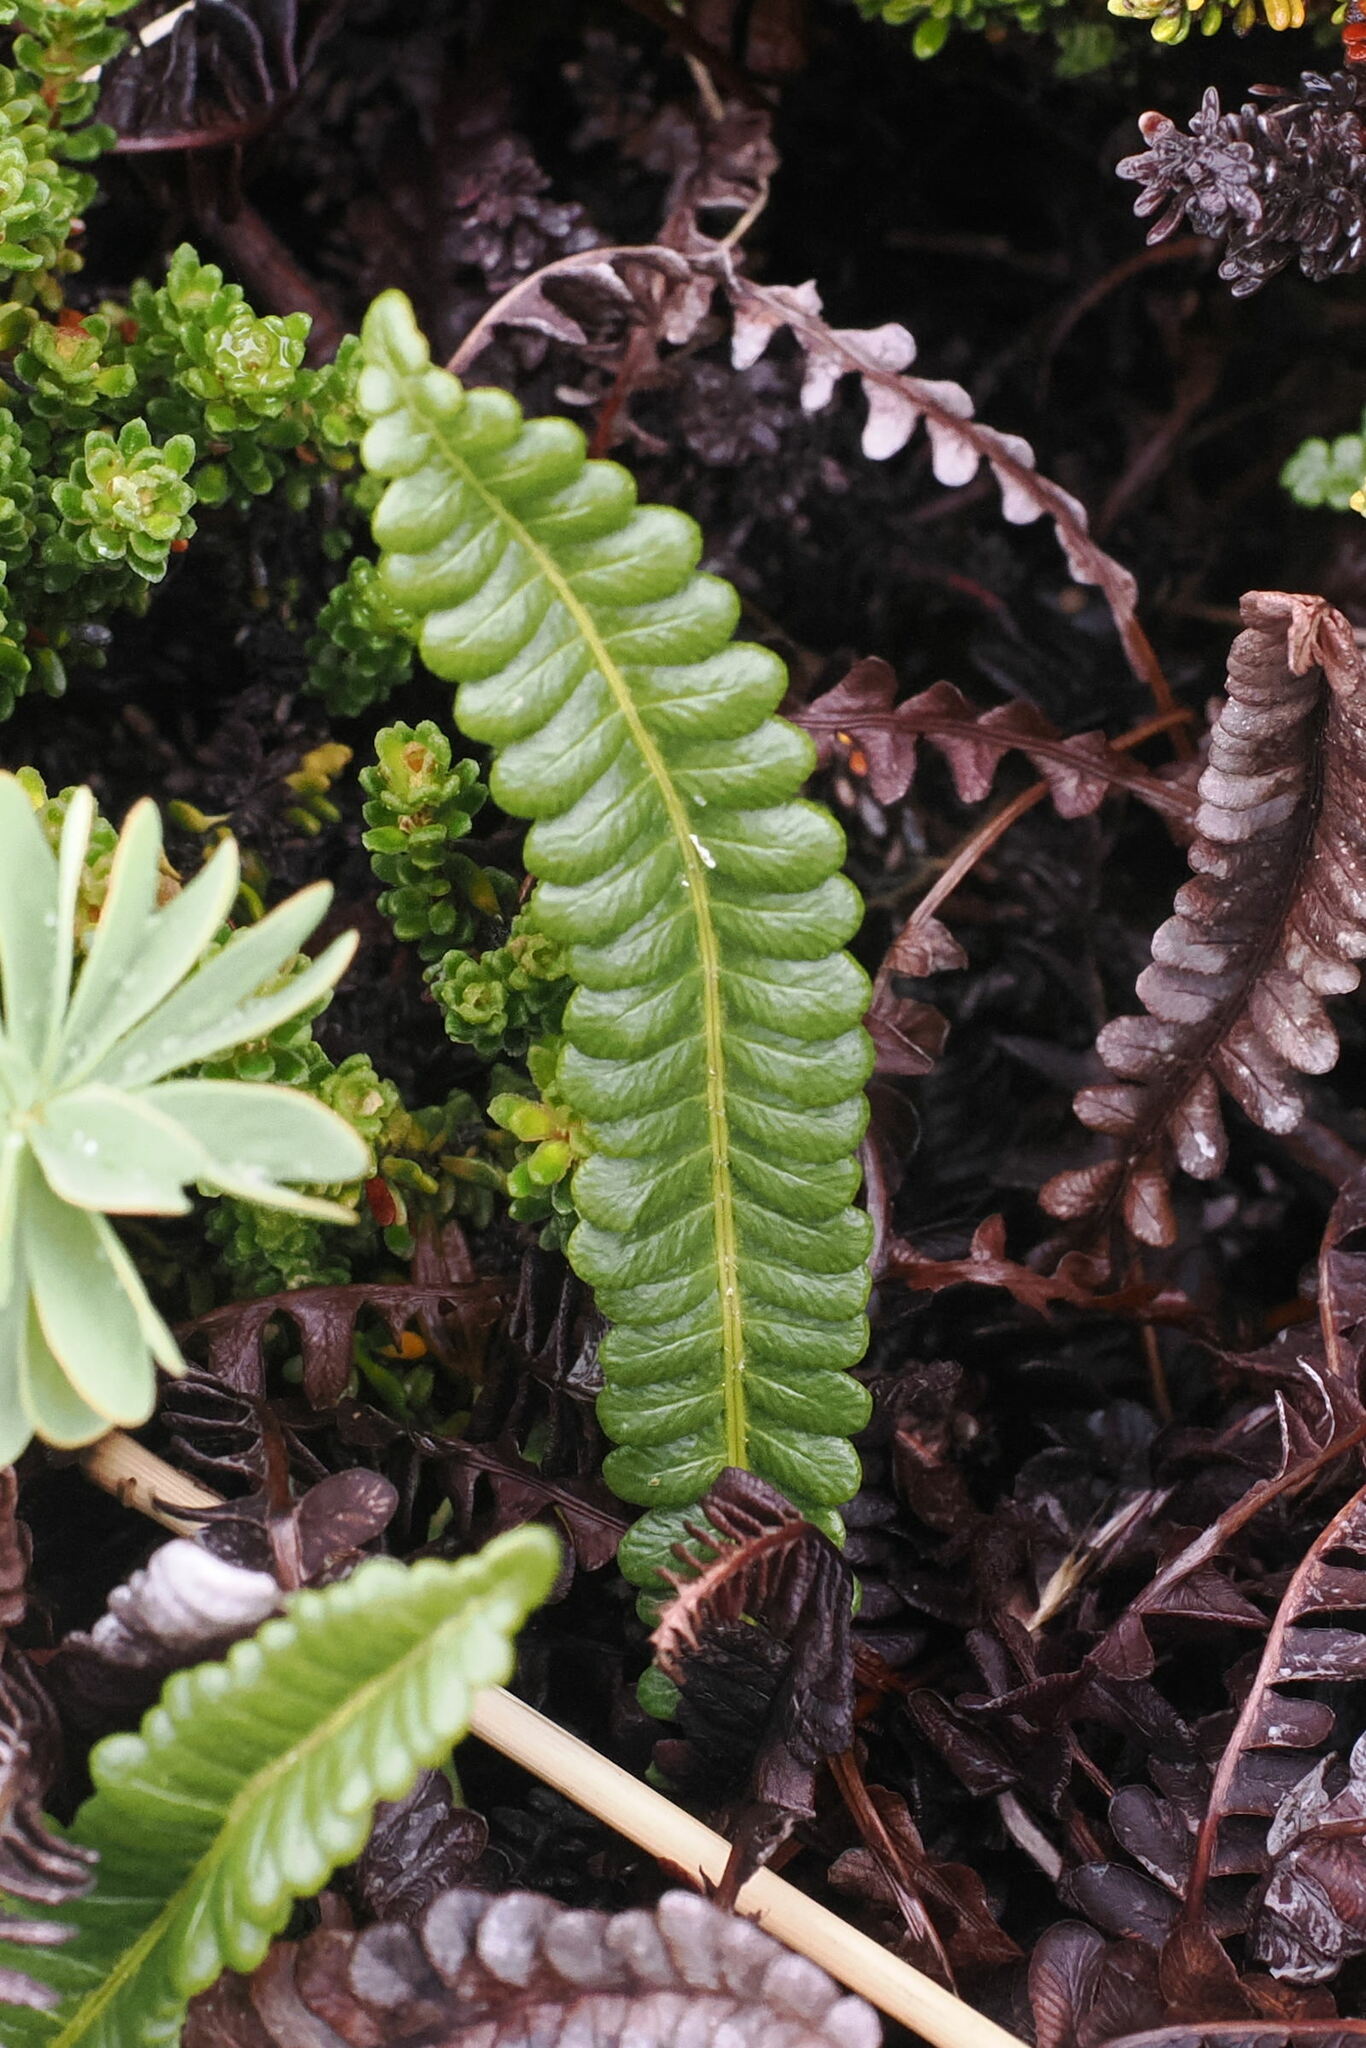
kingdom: Plantae
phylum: Tracheophyta
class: Polypodiopsida
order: Polypodiales
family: Blechnaceae
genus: Austroblechnum
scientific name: Austroblechnum penna-marina
